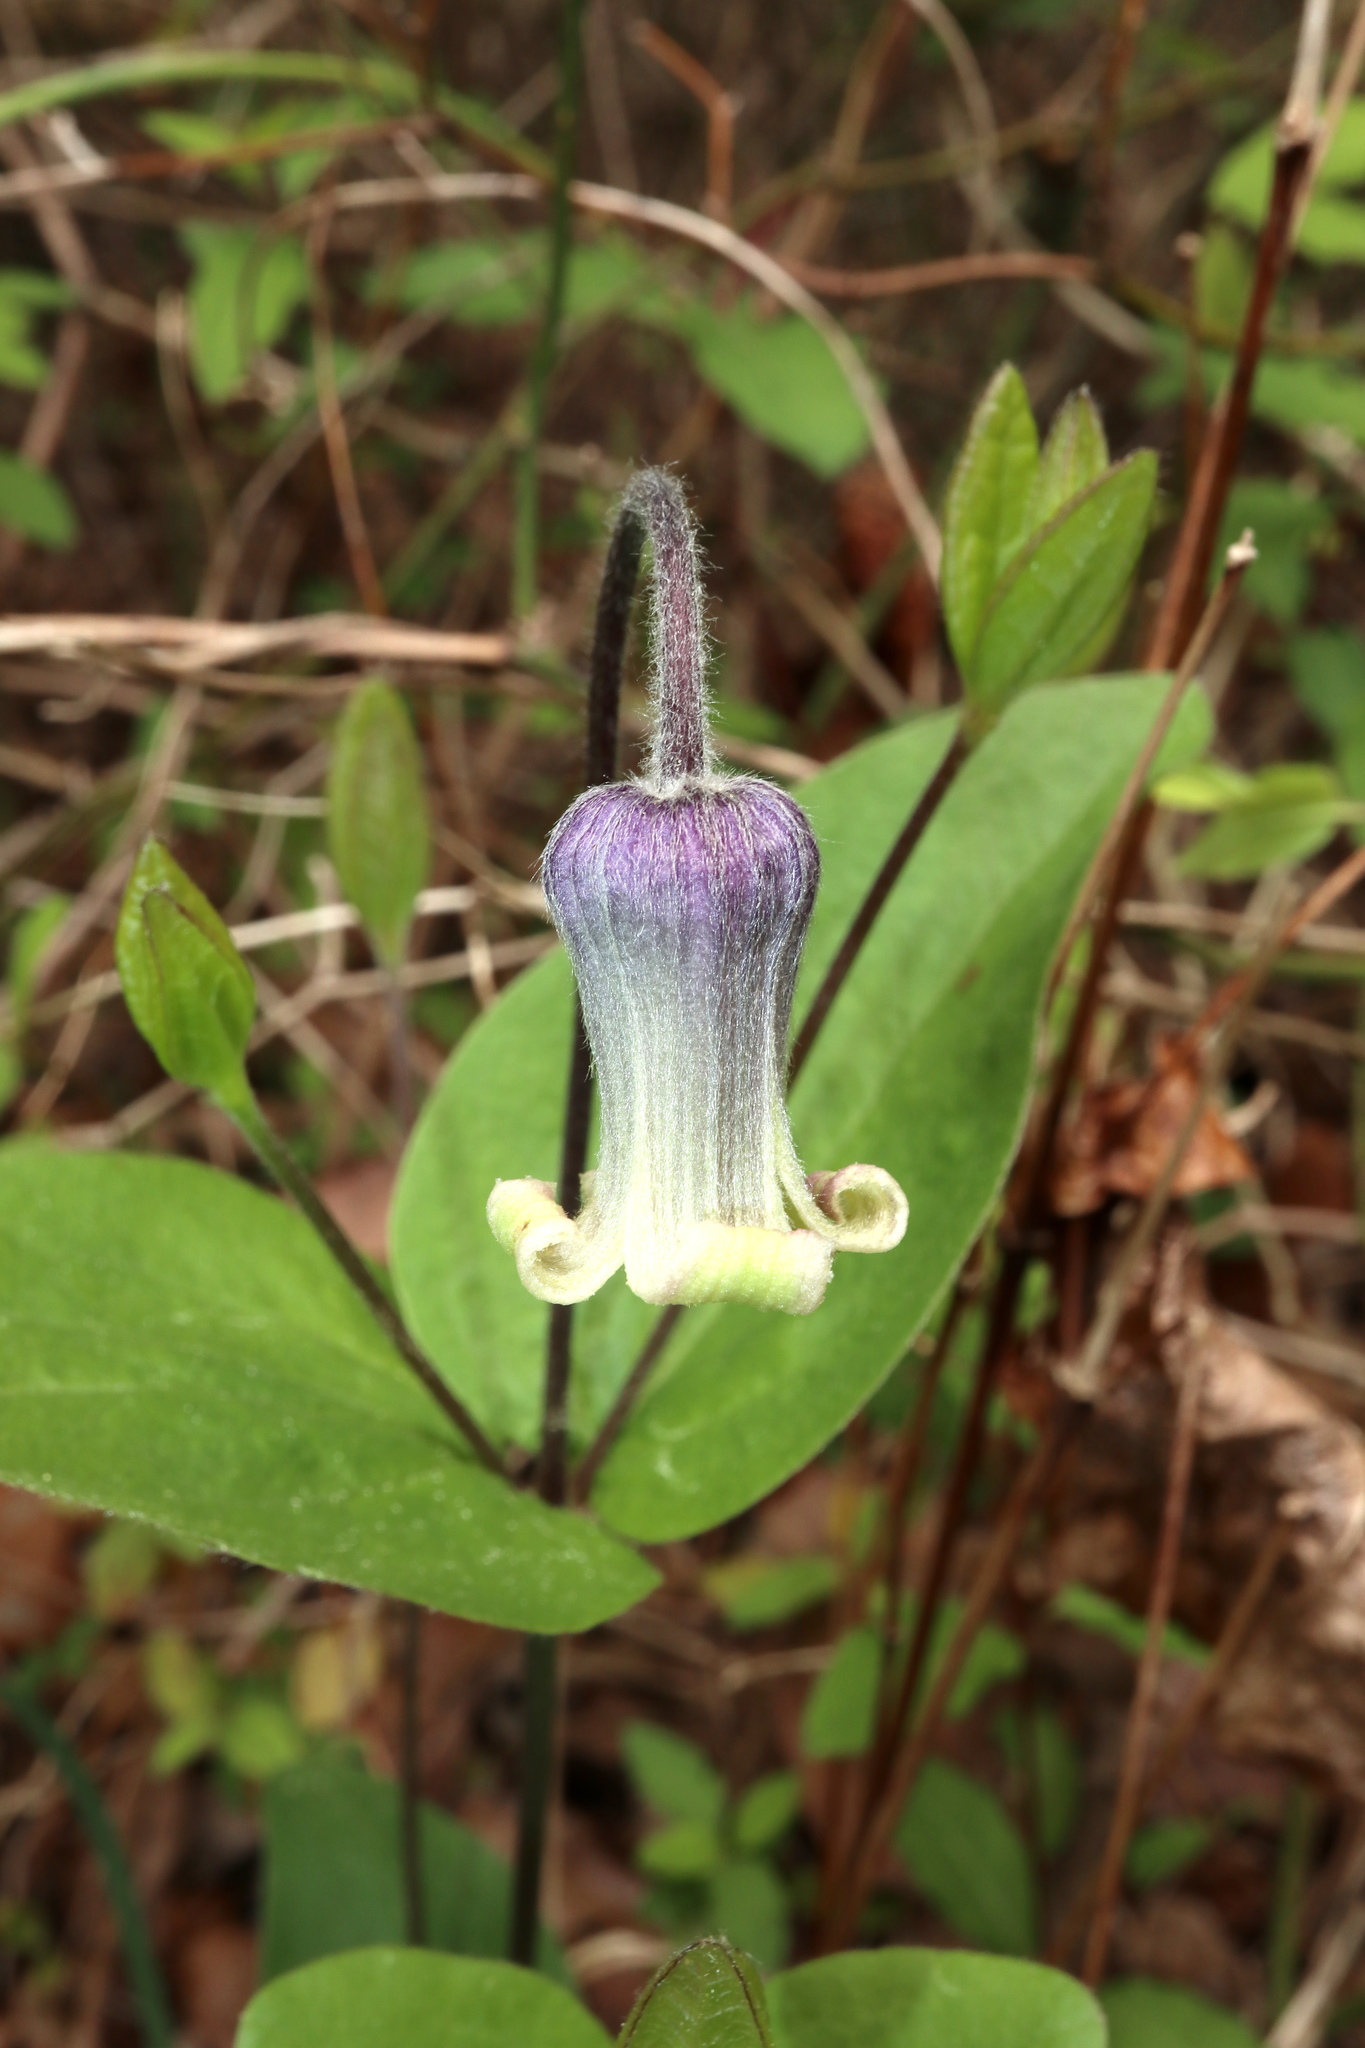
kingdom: Plantae
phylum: Tracheophyta
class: Magnoliopsida
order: Ranunculales
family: Ranunculaceae
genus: Clematis
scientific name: Clematis ochroleuca
